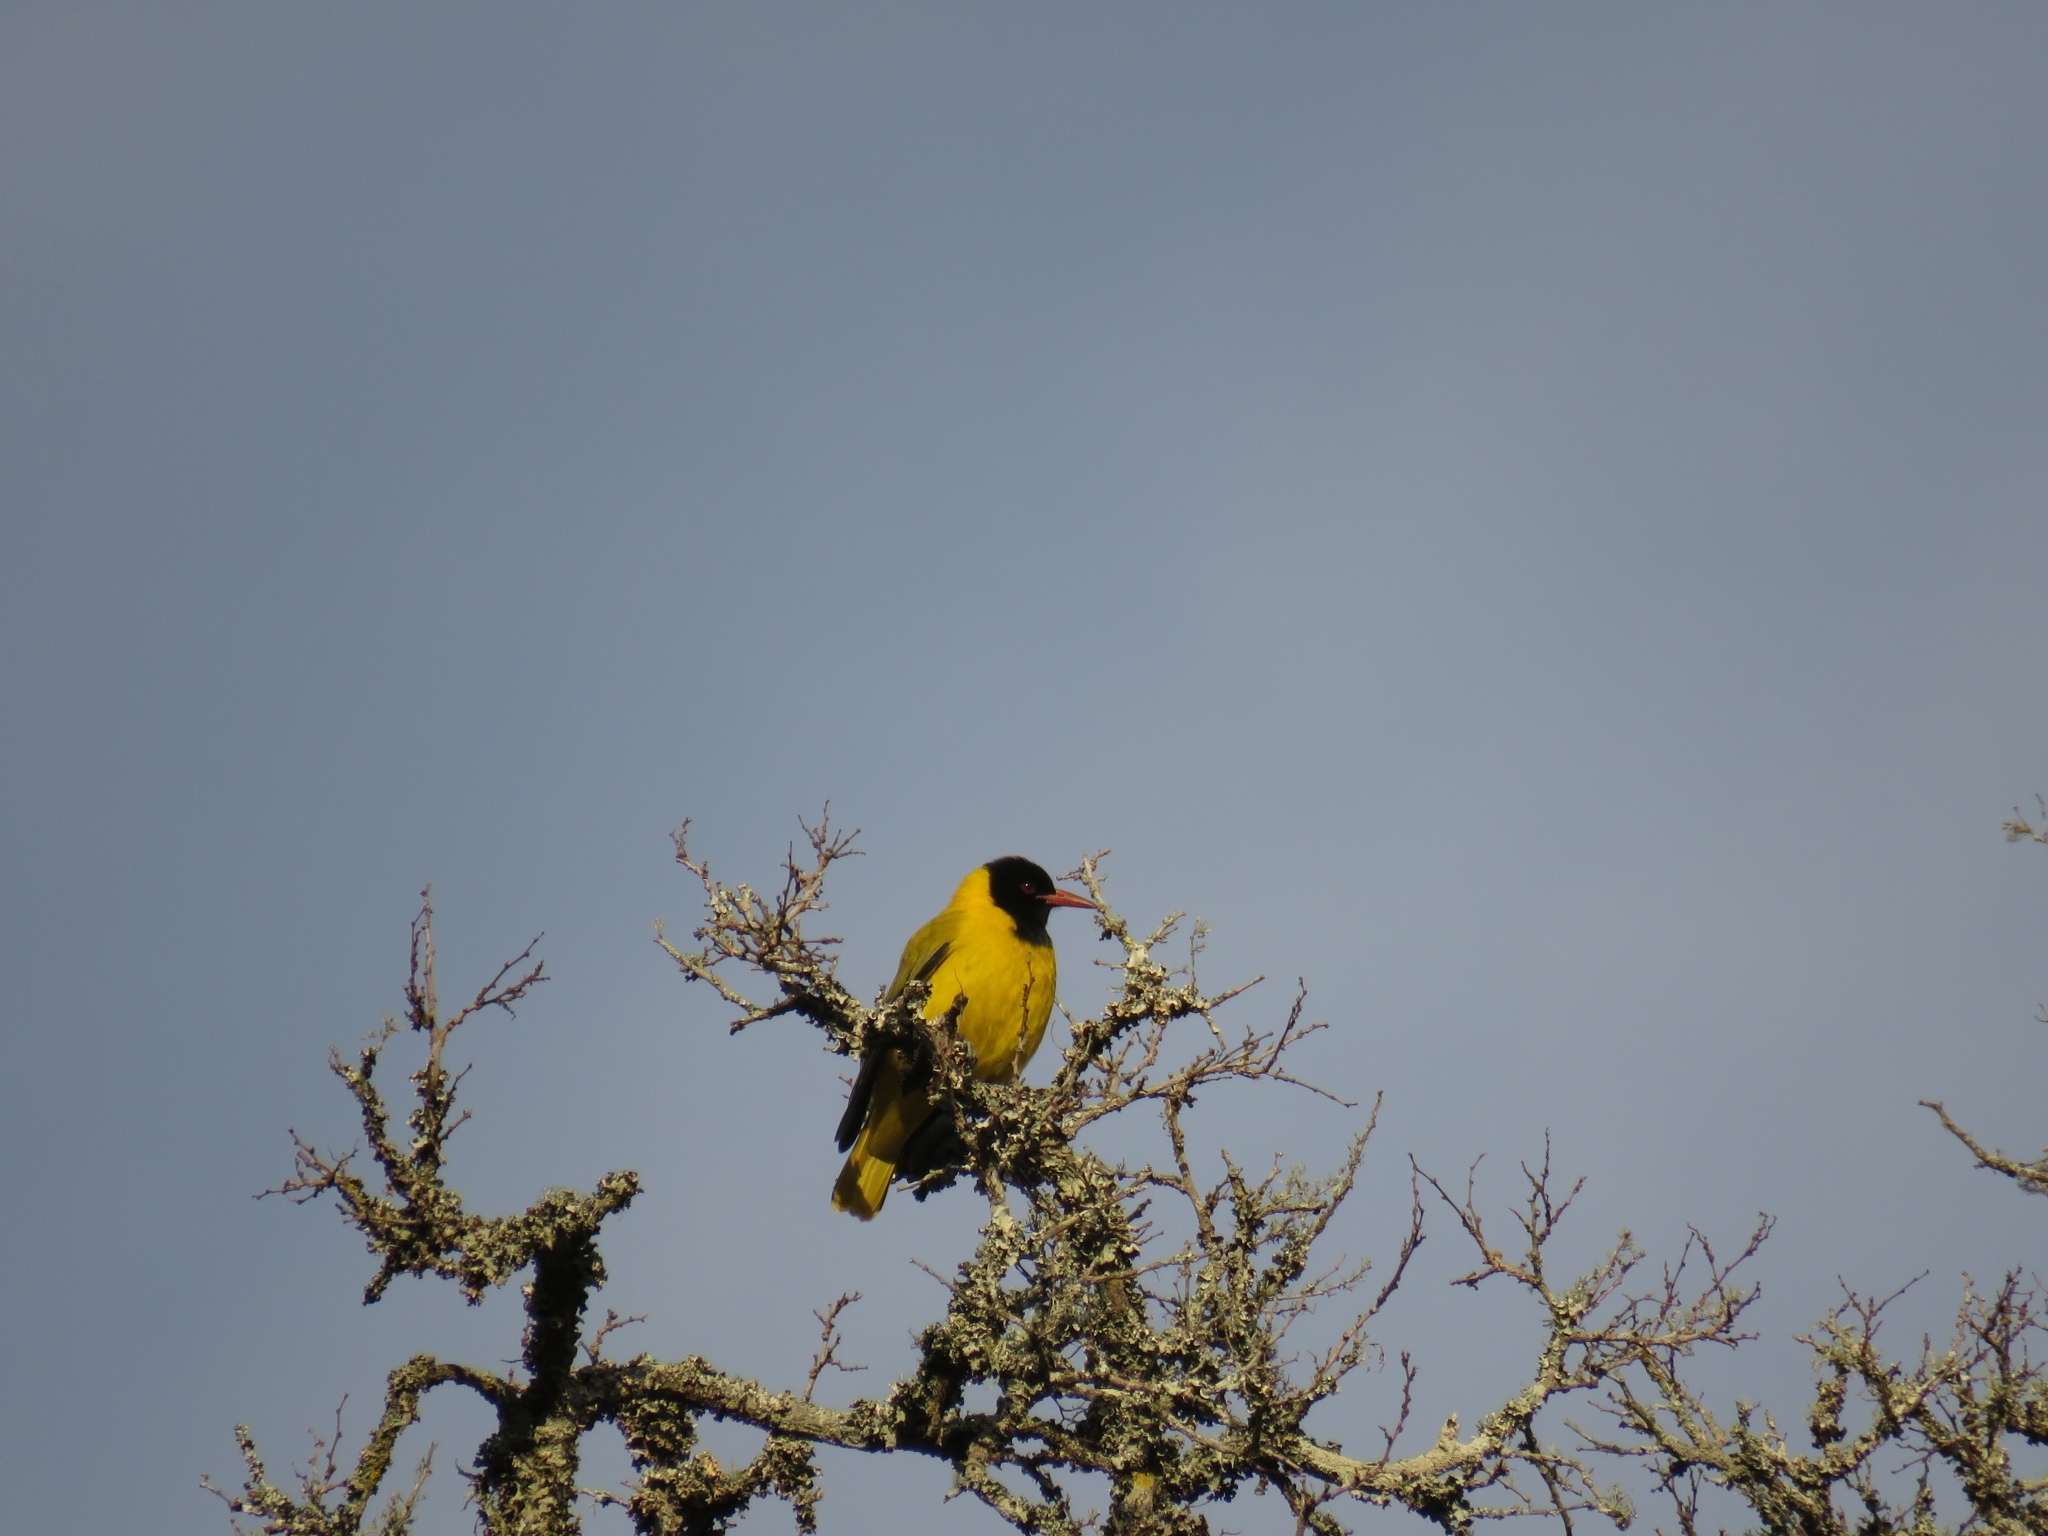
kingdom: Animalia
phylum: Chordata
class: Aves
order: Passeriformes
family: Oriolidae
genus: Oriolus
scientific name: Oriolus larvatus
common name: Black-headed oriole
